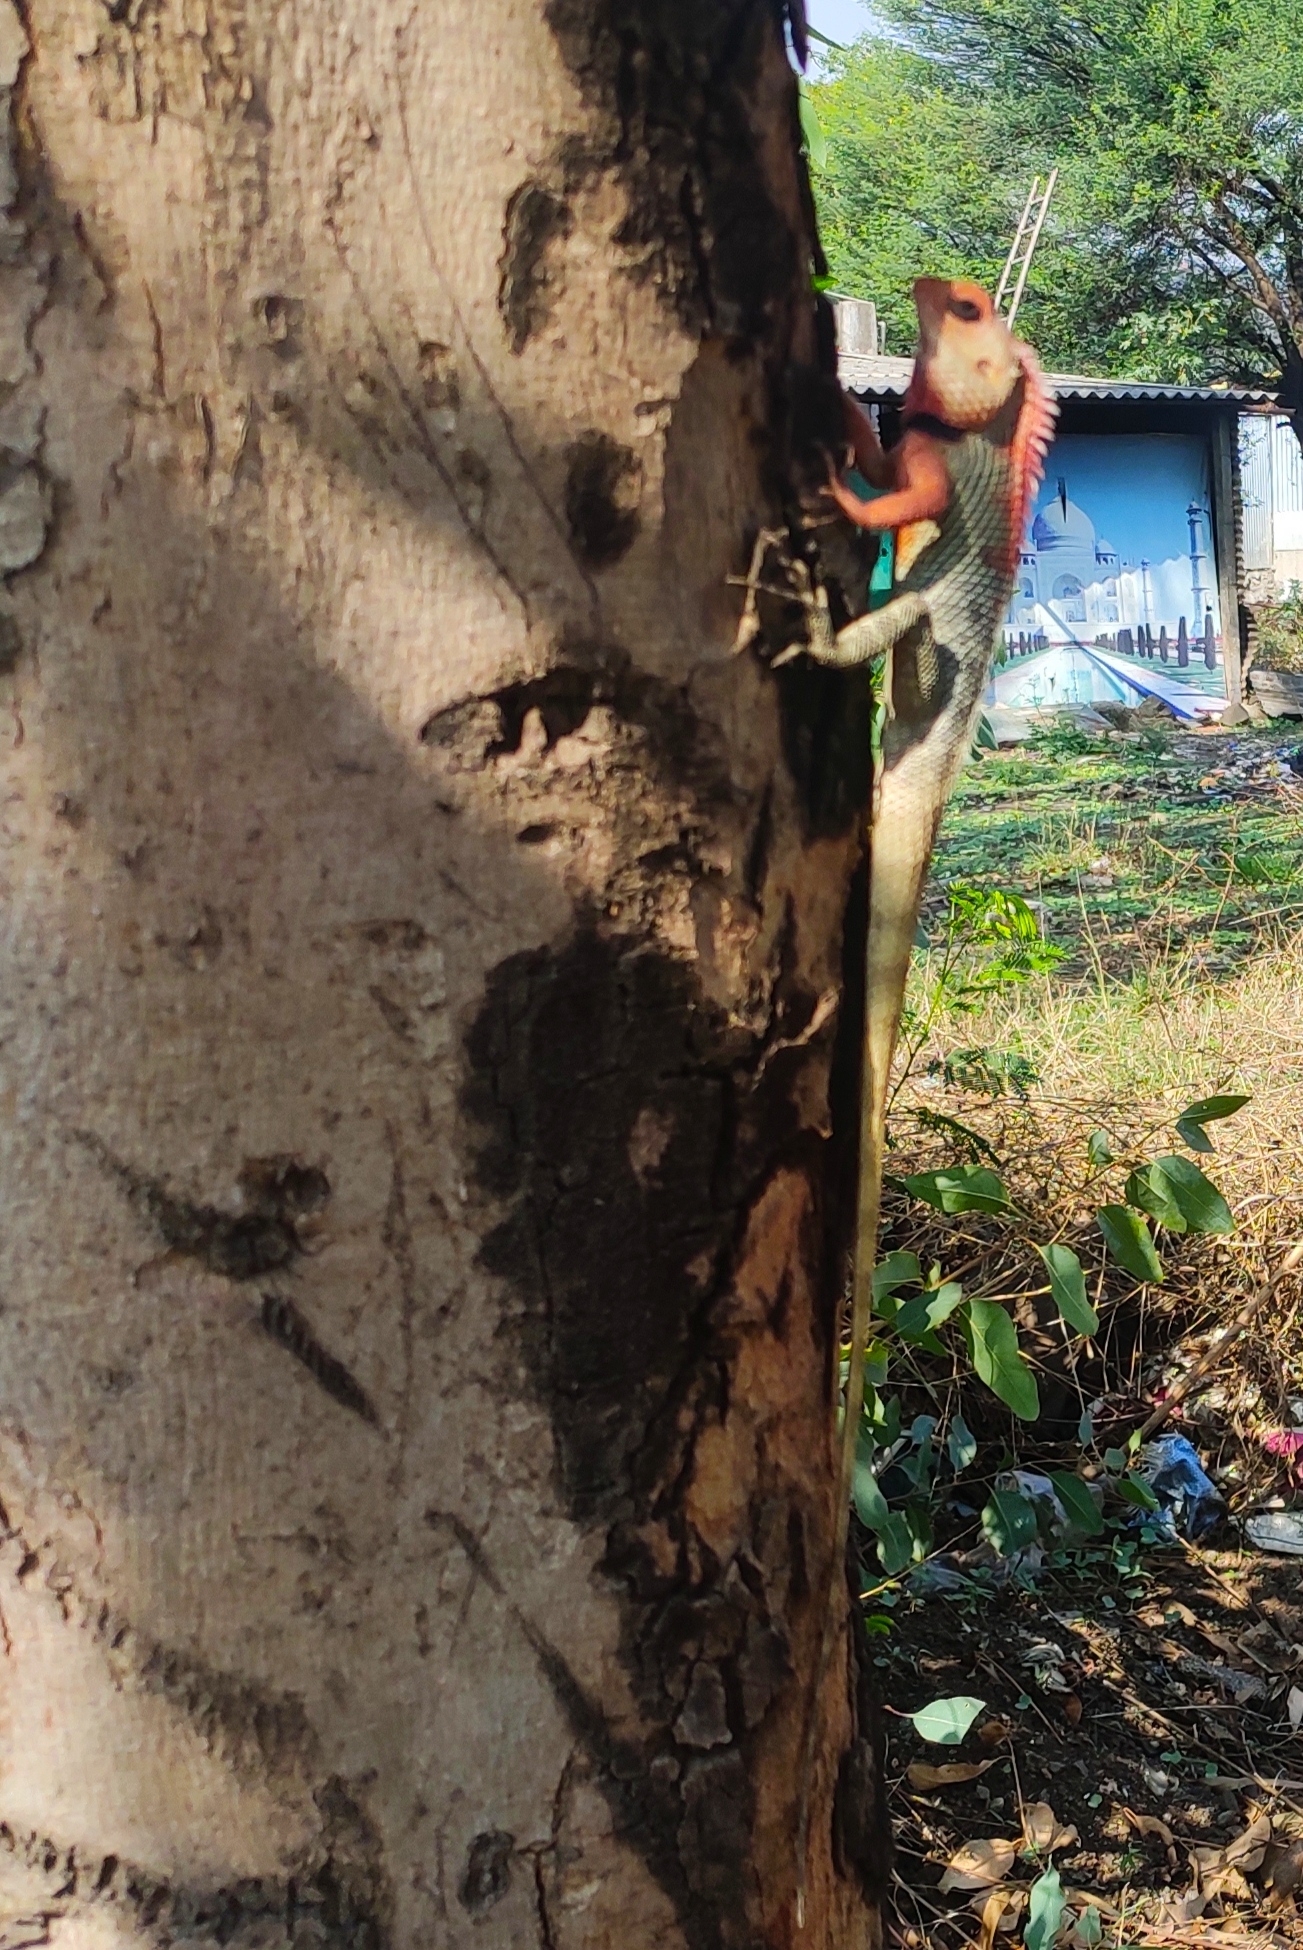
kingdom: Animalia
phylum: Chordata
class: Squamata
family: Agamidae
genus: Calotes
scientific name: Calotes versicolor
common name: Oriental garden lizard
